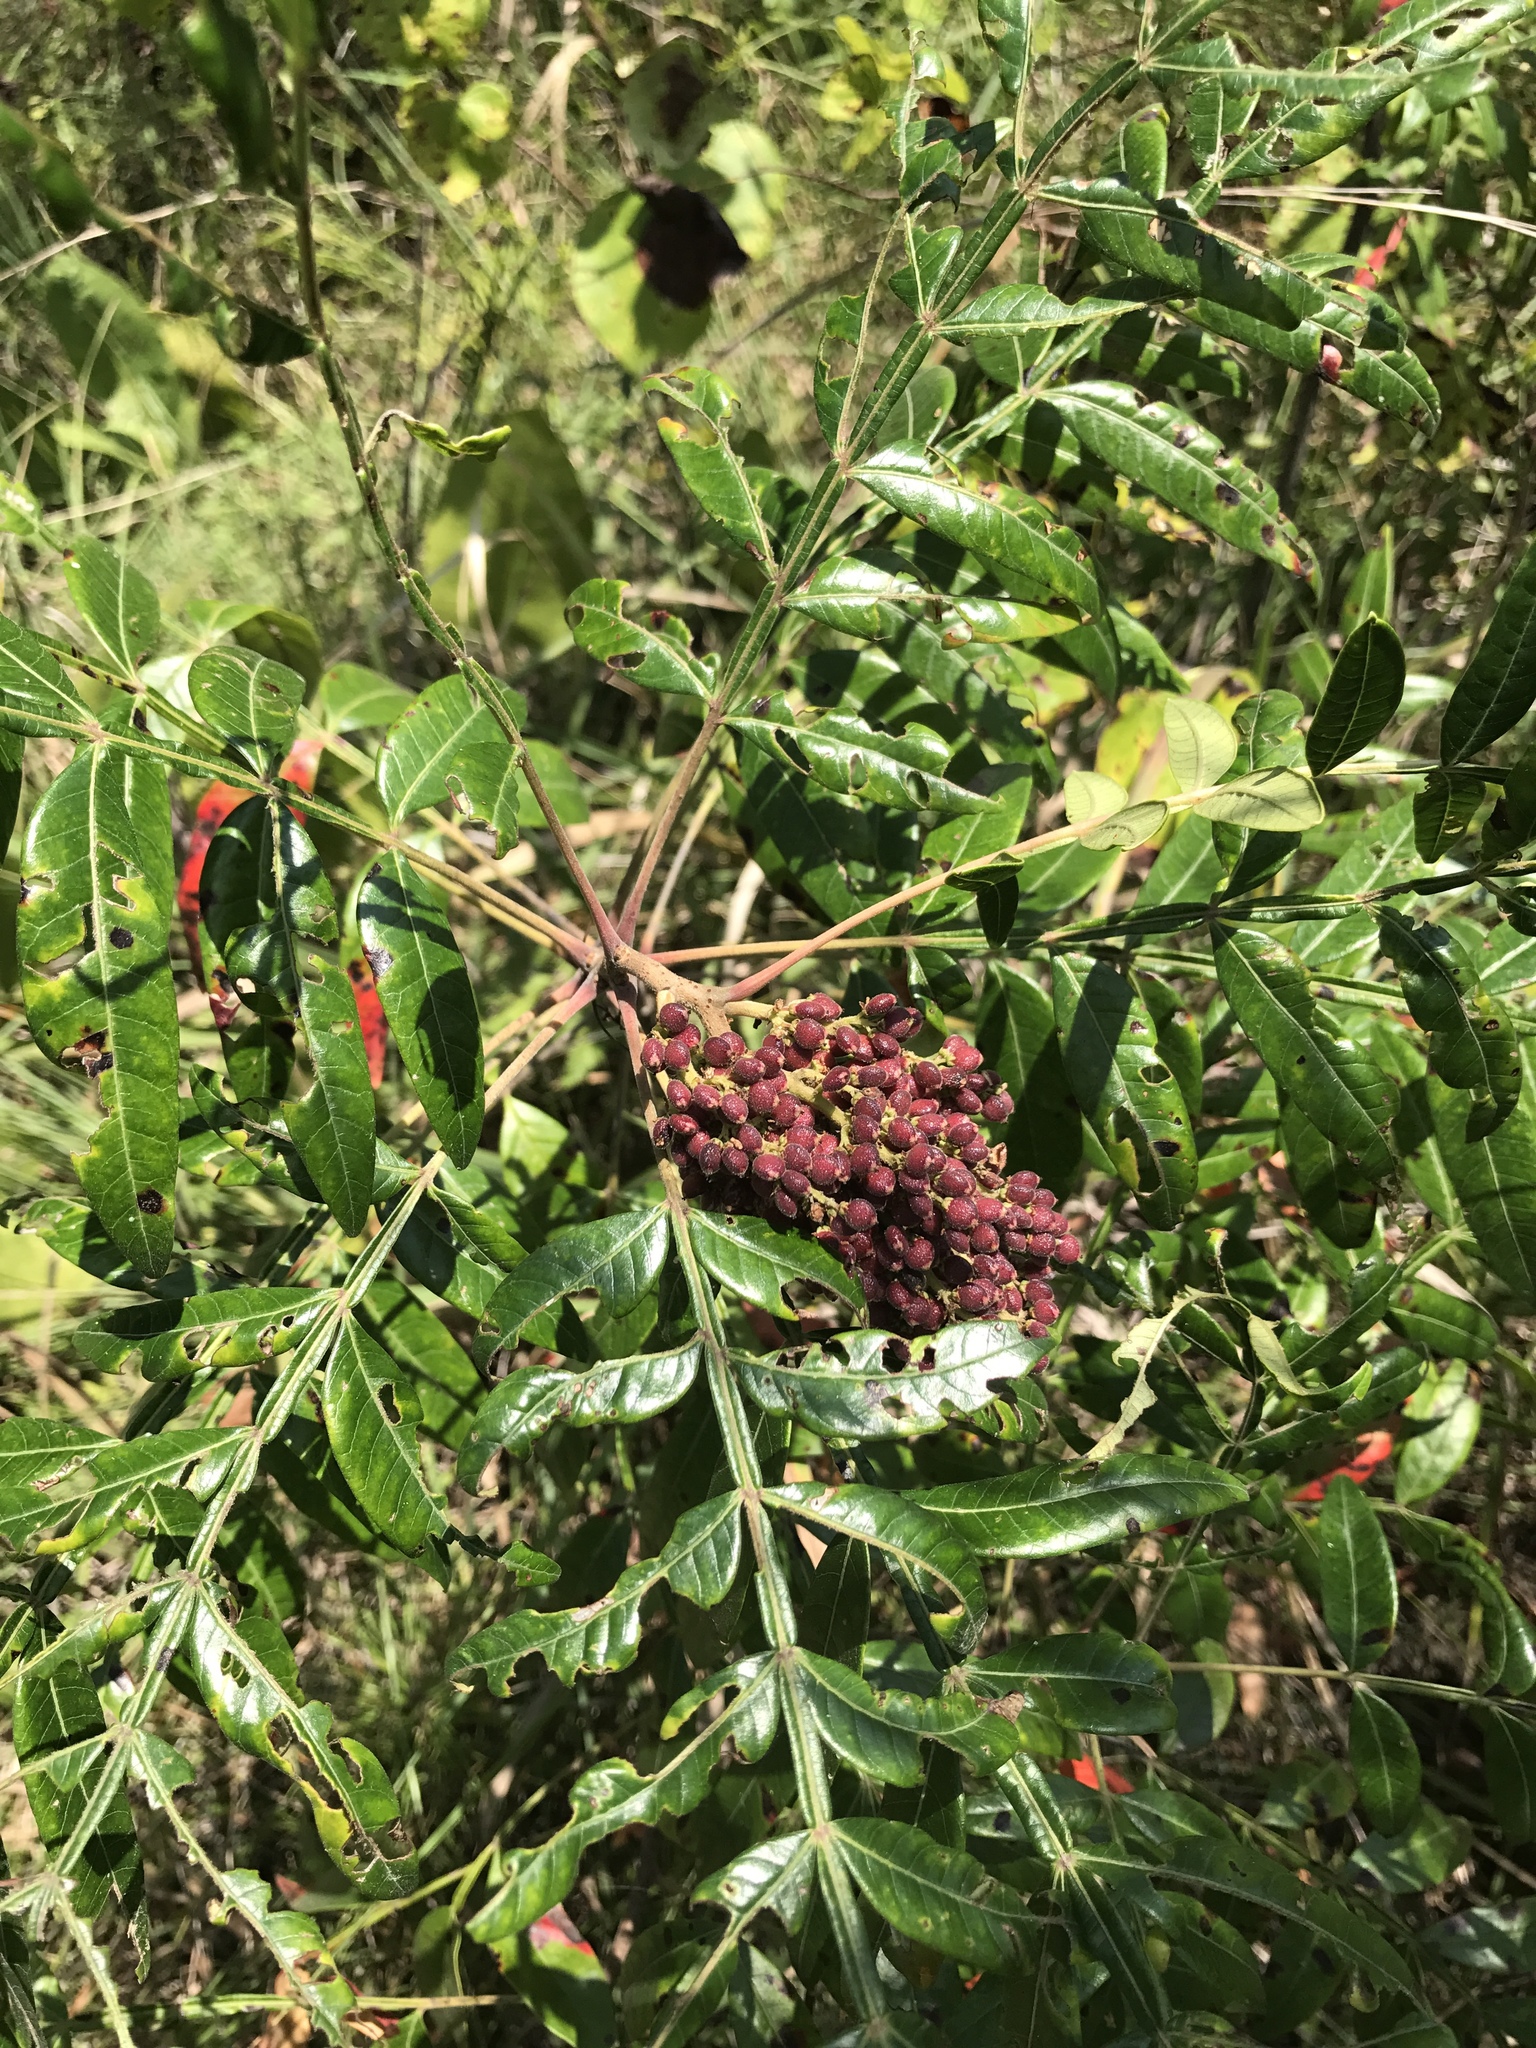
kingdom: Plantae
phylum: Tracheophyta
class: Magnoliopsida
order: Sapindales
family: Anacardiaceae
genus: Rhus
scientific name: Rhus copallina
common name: Shining sumac
